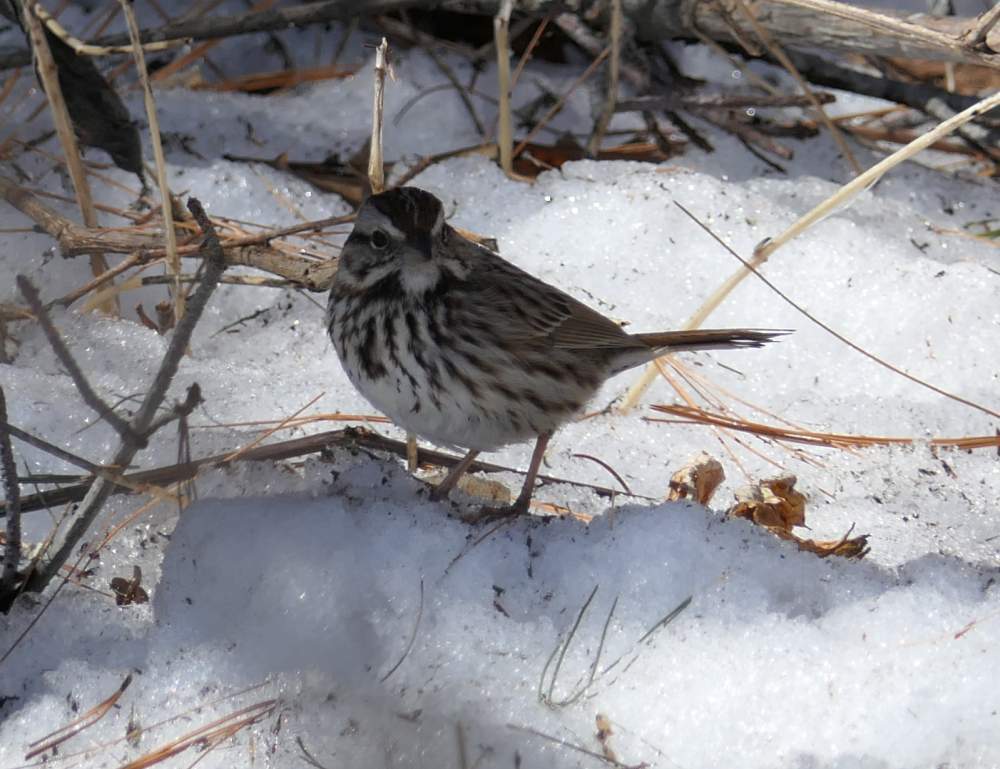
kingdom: Animalia
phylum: Chordata
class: Aves
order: Passeriformes
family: Passerellidae
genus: Melospiza
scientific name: Melospiza melodia
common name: Song sparrow
